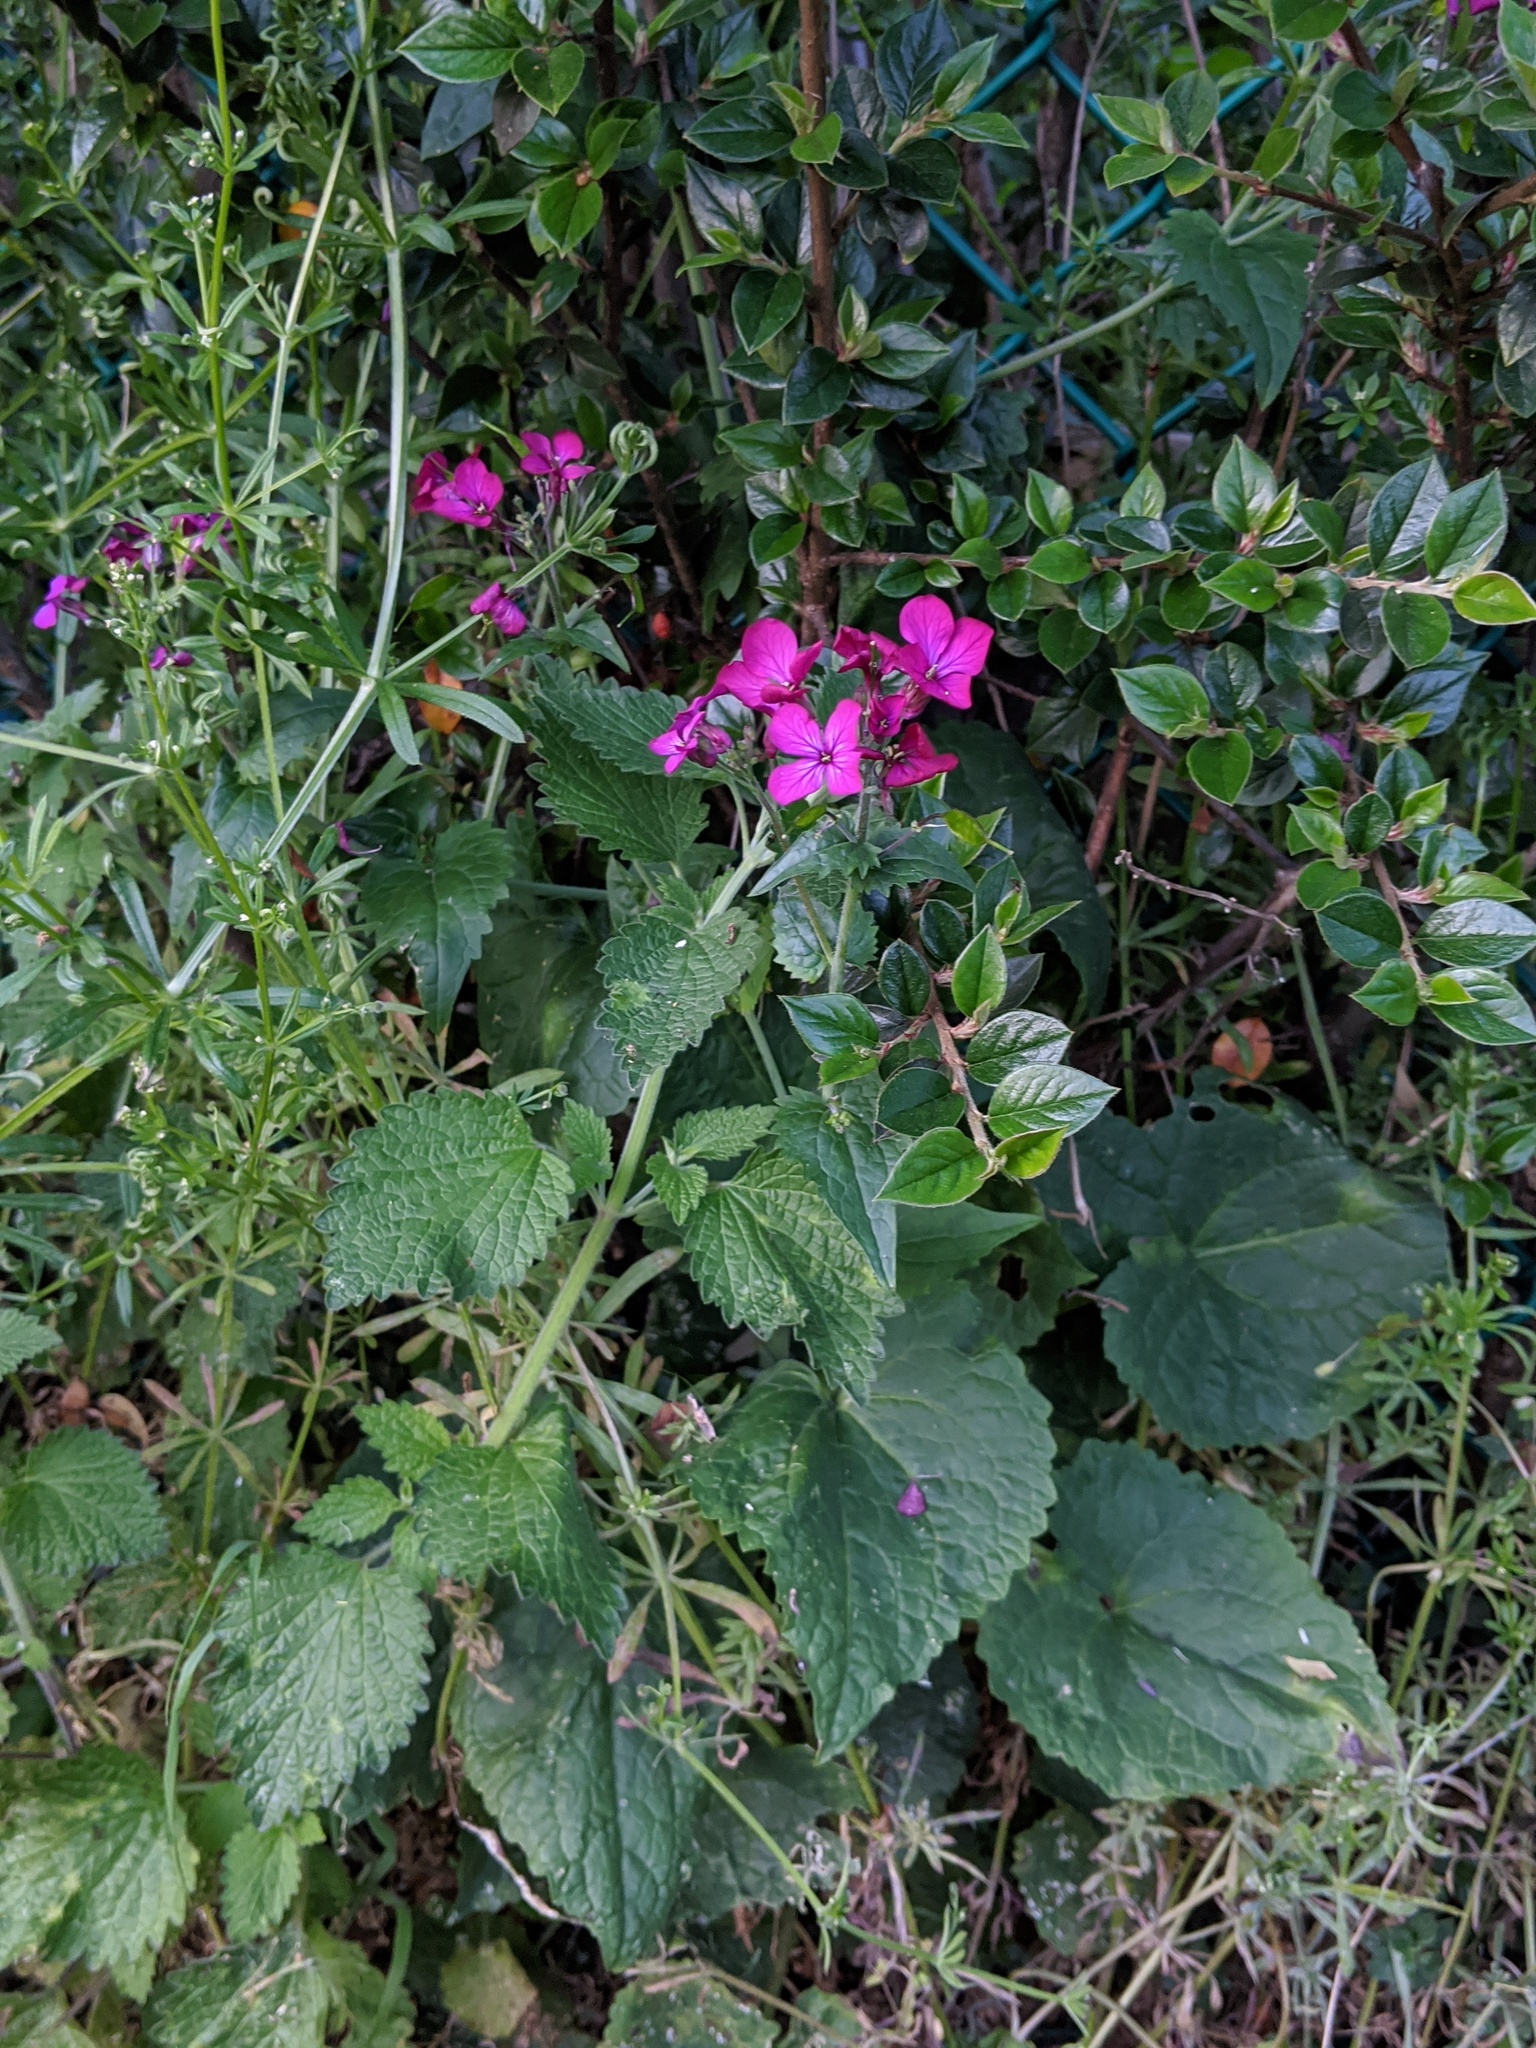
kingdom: Plantae
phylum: Tracheophyta
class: Magnoliopsida
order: Brassicales
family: Brassicaceae
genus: Lunaria
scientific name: Lunaria annua
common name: Honesty
